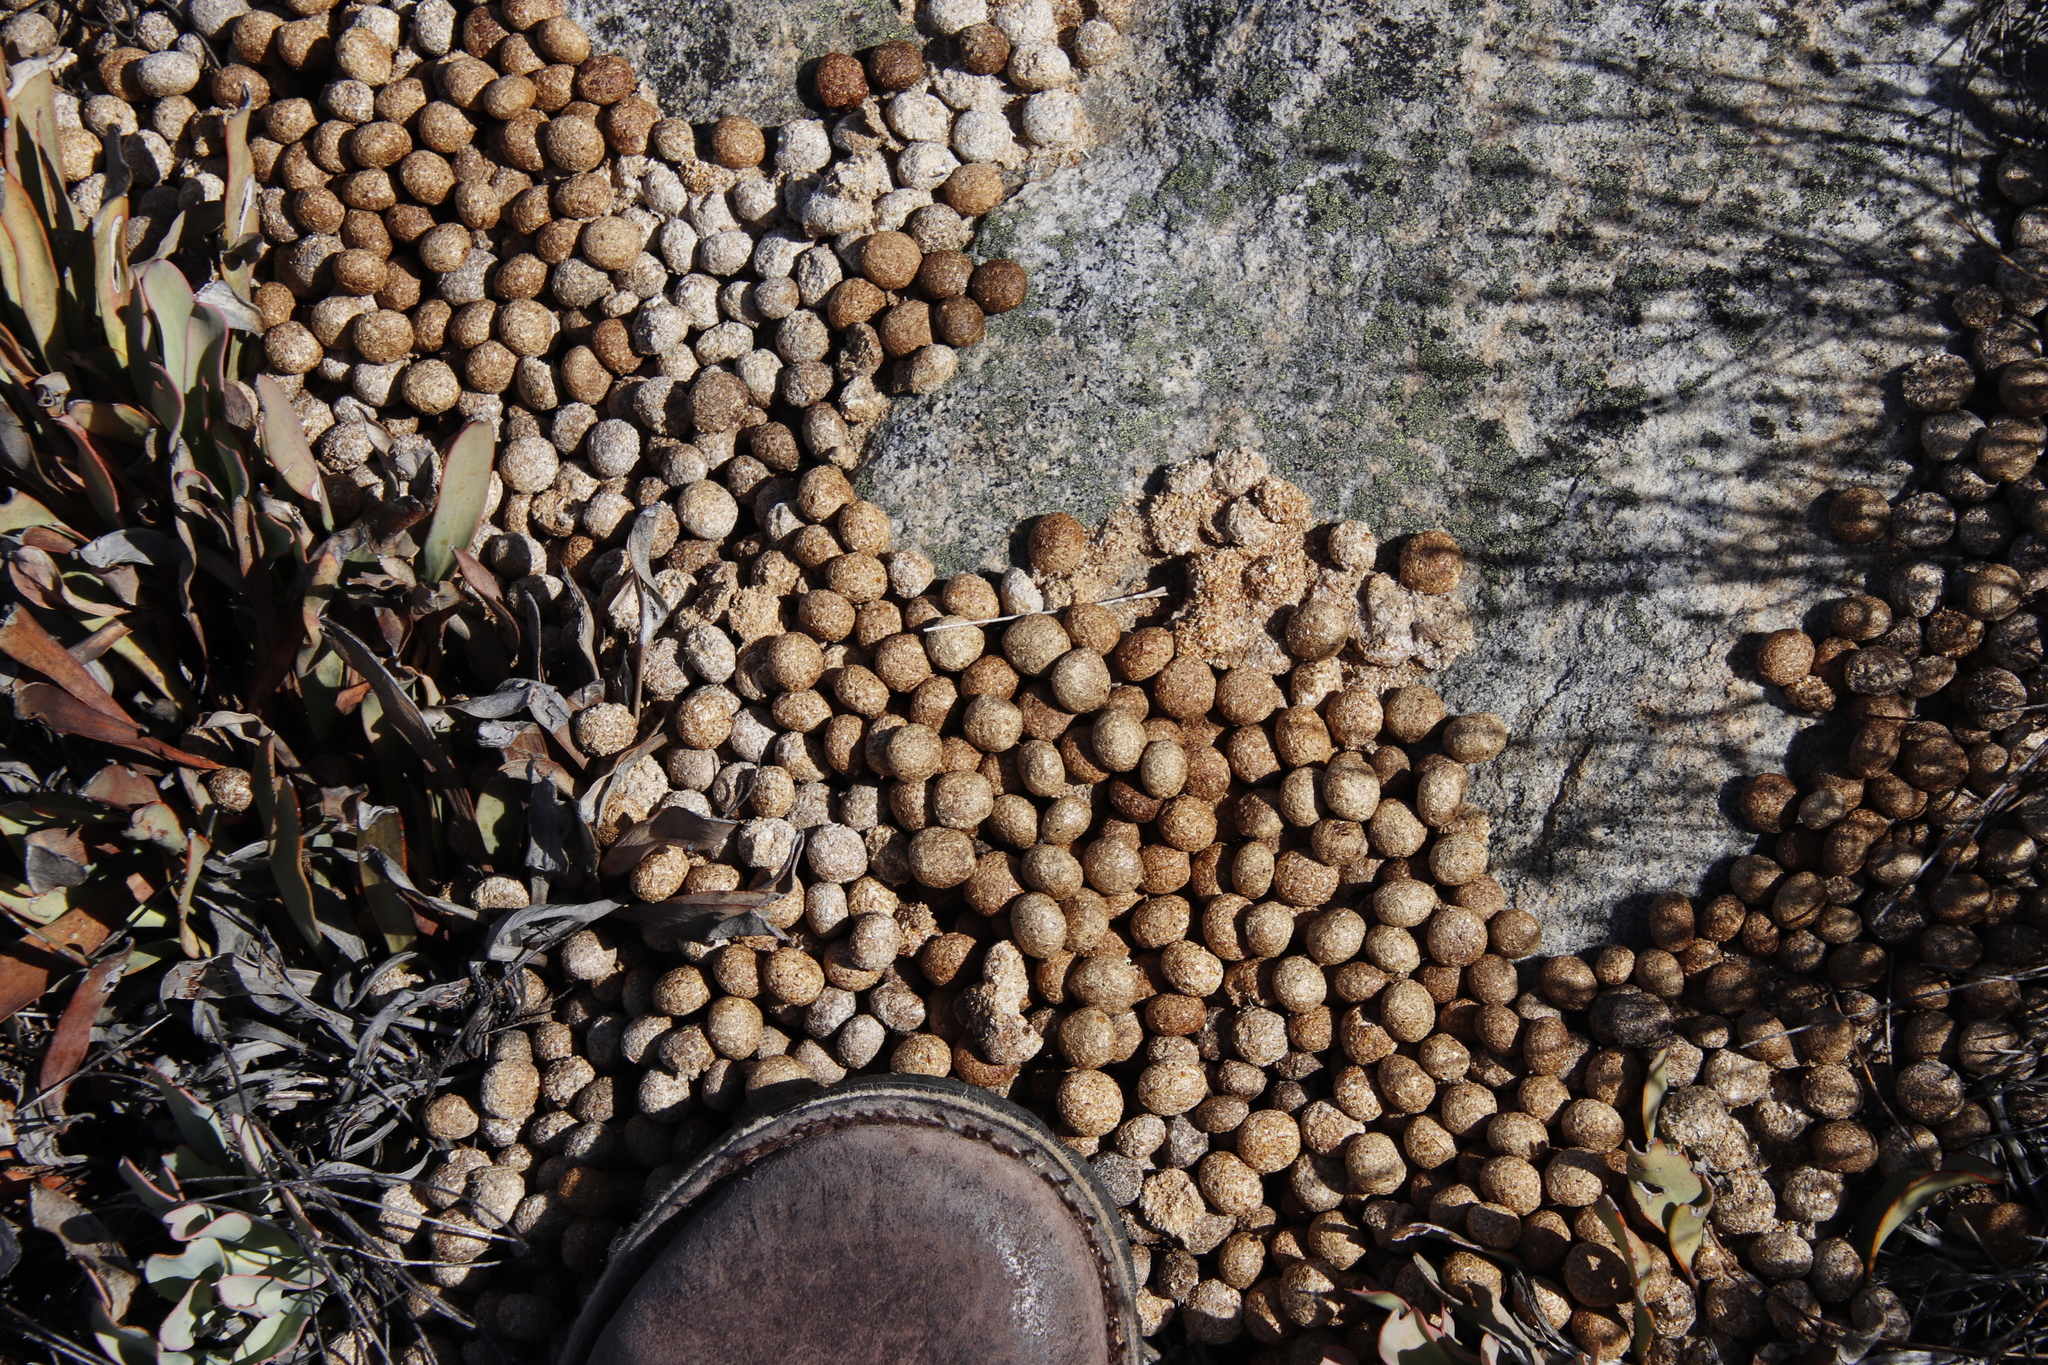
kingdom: Animalia
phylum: Chordata
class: Mammalia
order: Lagomorpha
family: Leporidae
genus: Pronolagus
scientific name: Pronolagus saundersiae
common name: Hewitt's red rock hare
